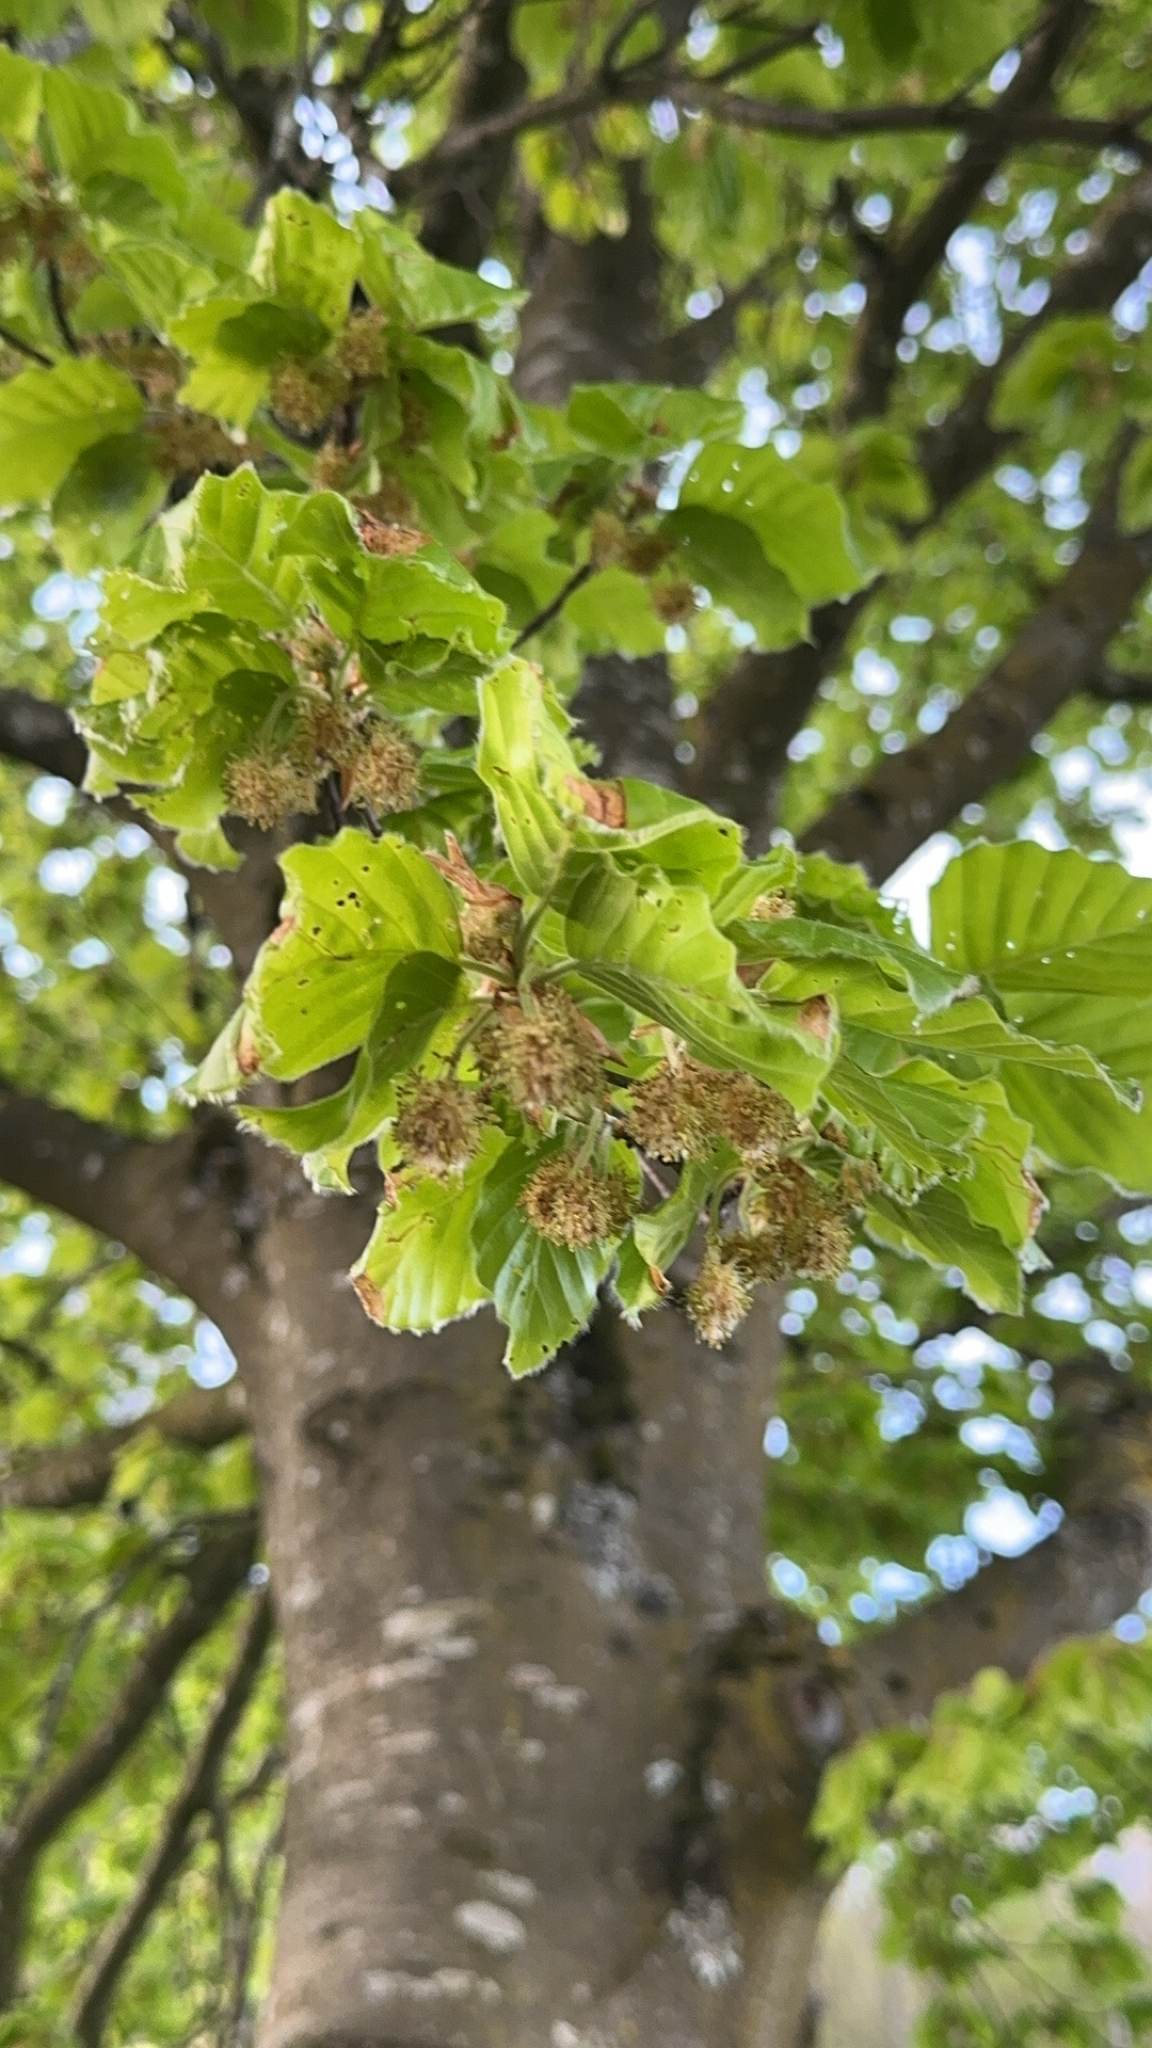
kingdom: Plantae
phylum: Tracheophyta
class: Magnoliopsida
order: Fagales
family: Fagaceae
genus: Fagus
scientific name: Fagus sylvatica
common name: Beech
